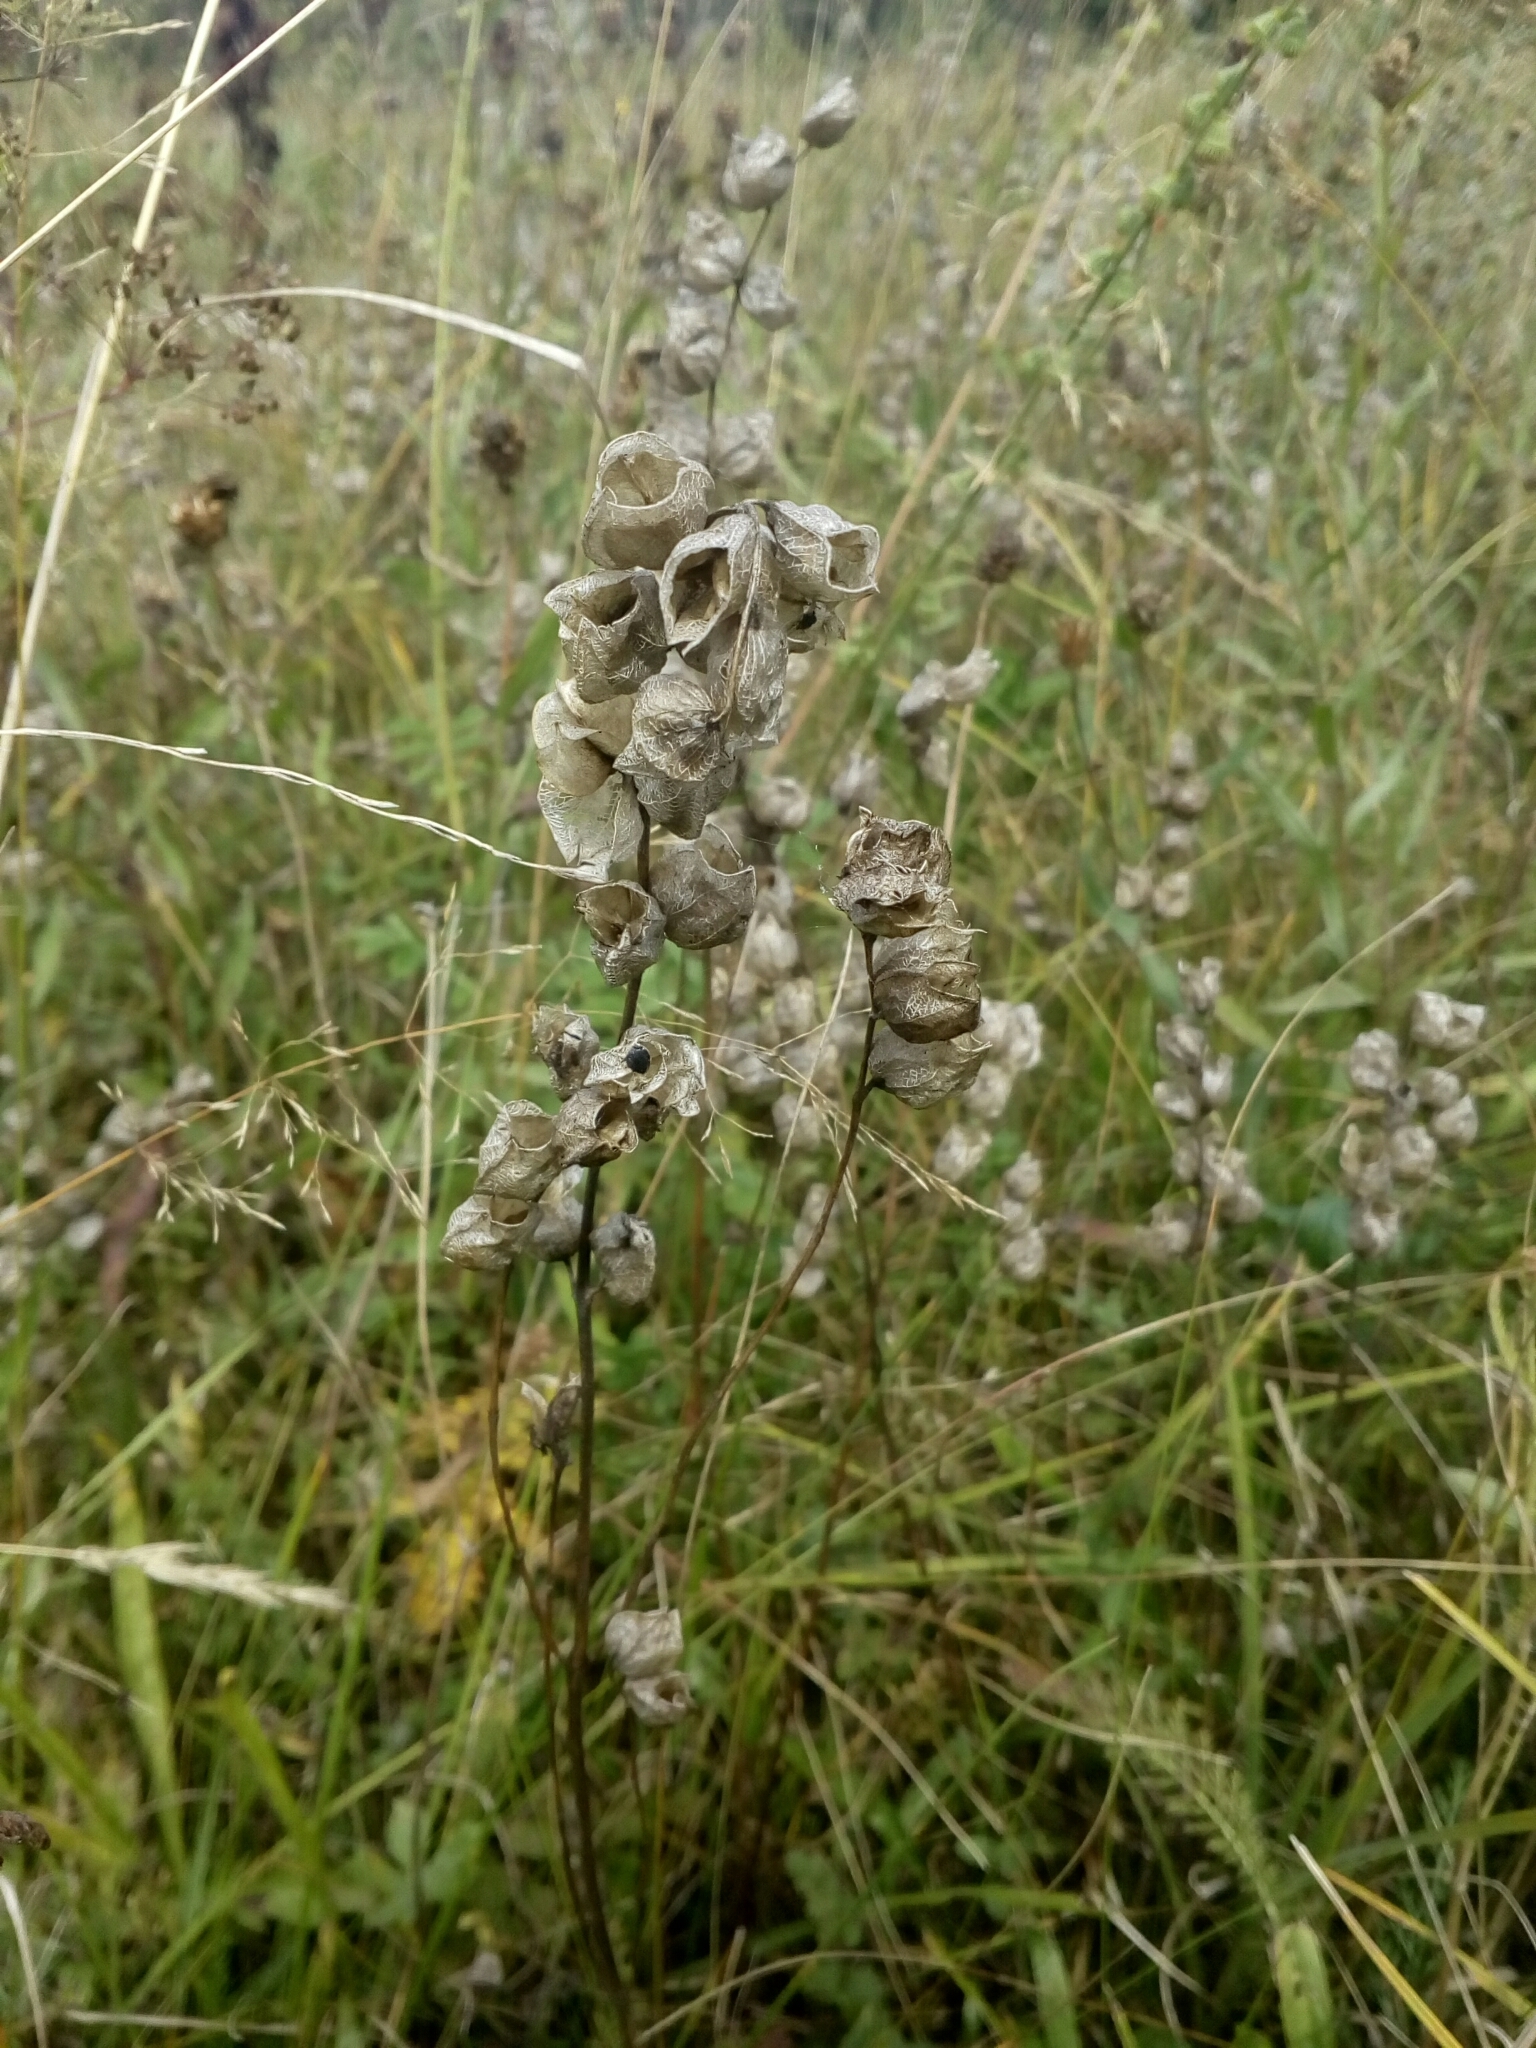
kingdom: Plantae
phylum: Tracheophyta
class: Magnoliopsida
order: Lamiales
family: Orobanchaceae
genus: Rhinanthus
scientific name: Rhinanthus minor
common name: Yellow-rattle
